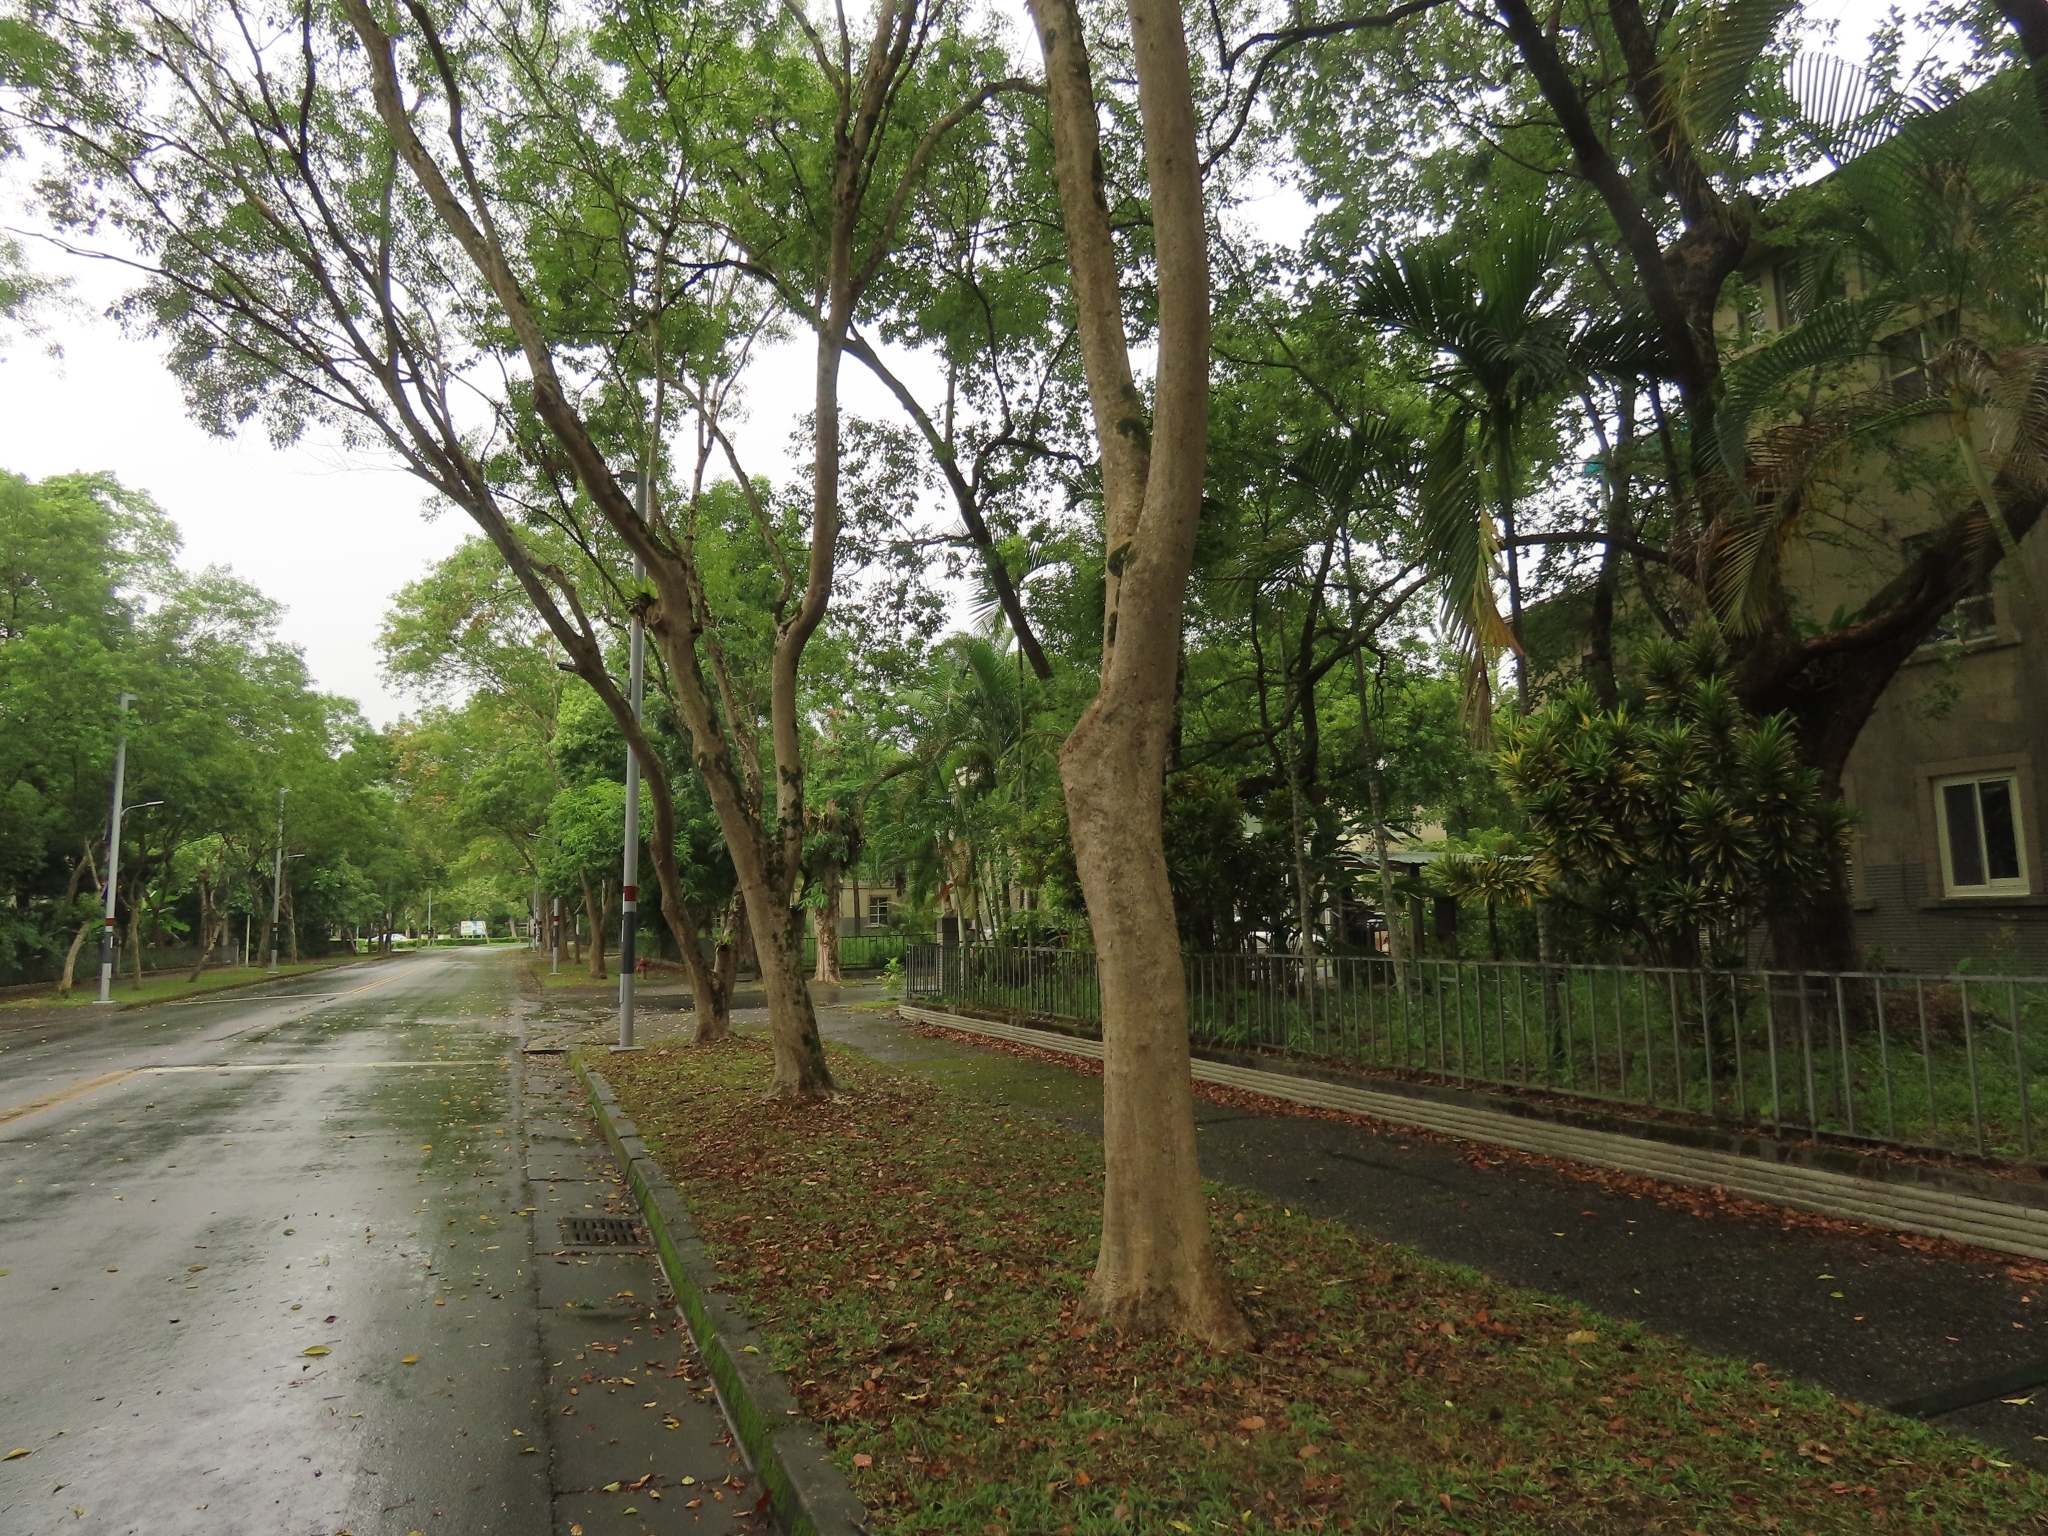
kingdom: Plantae
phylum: Tracheophyta
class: Magnoliopsida
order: Rosales
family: Moraceae
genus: Ficus
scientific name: Ficus maclellandii
